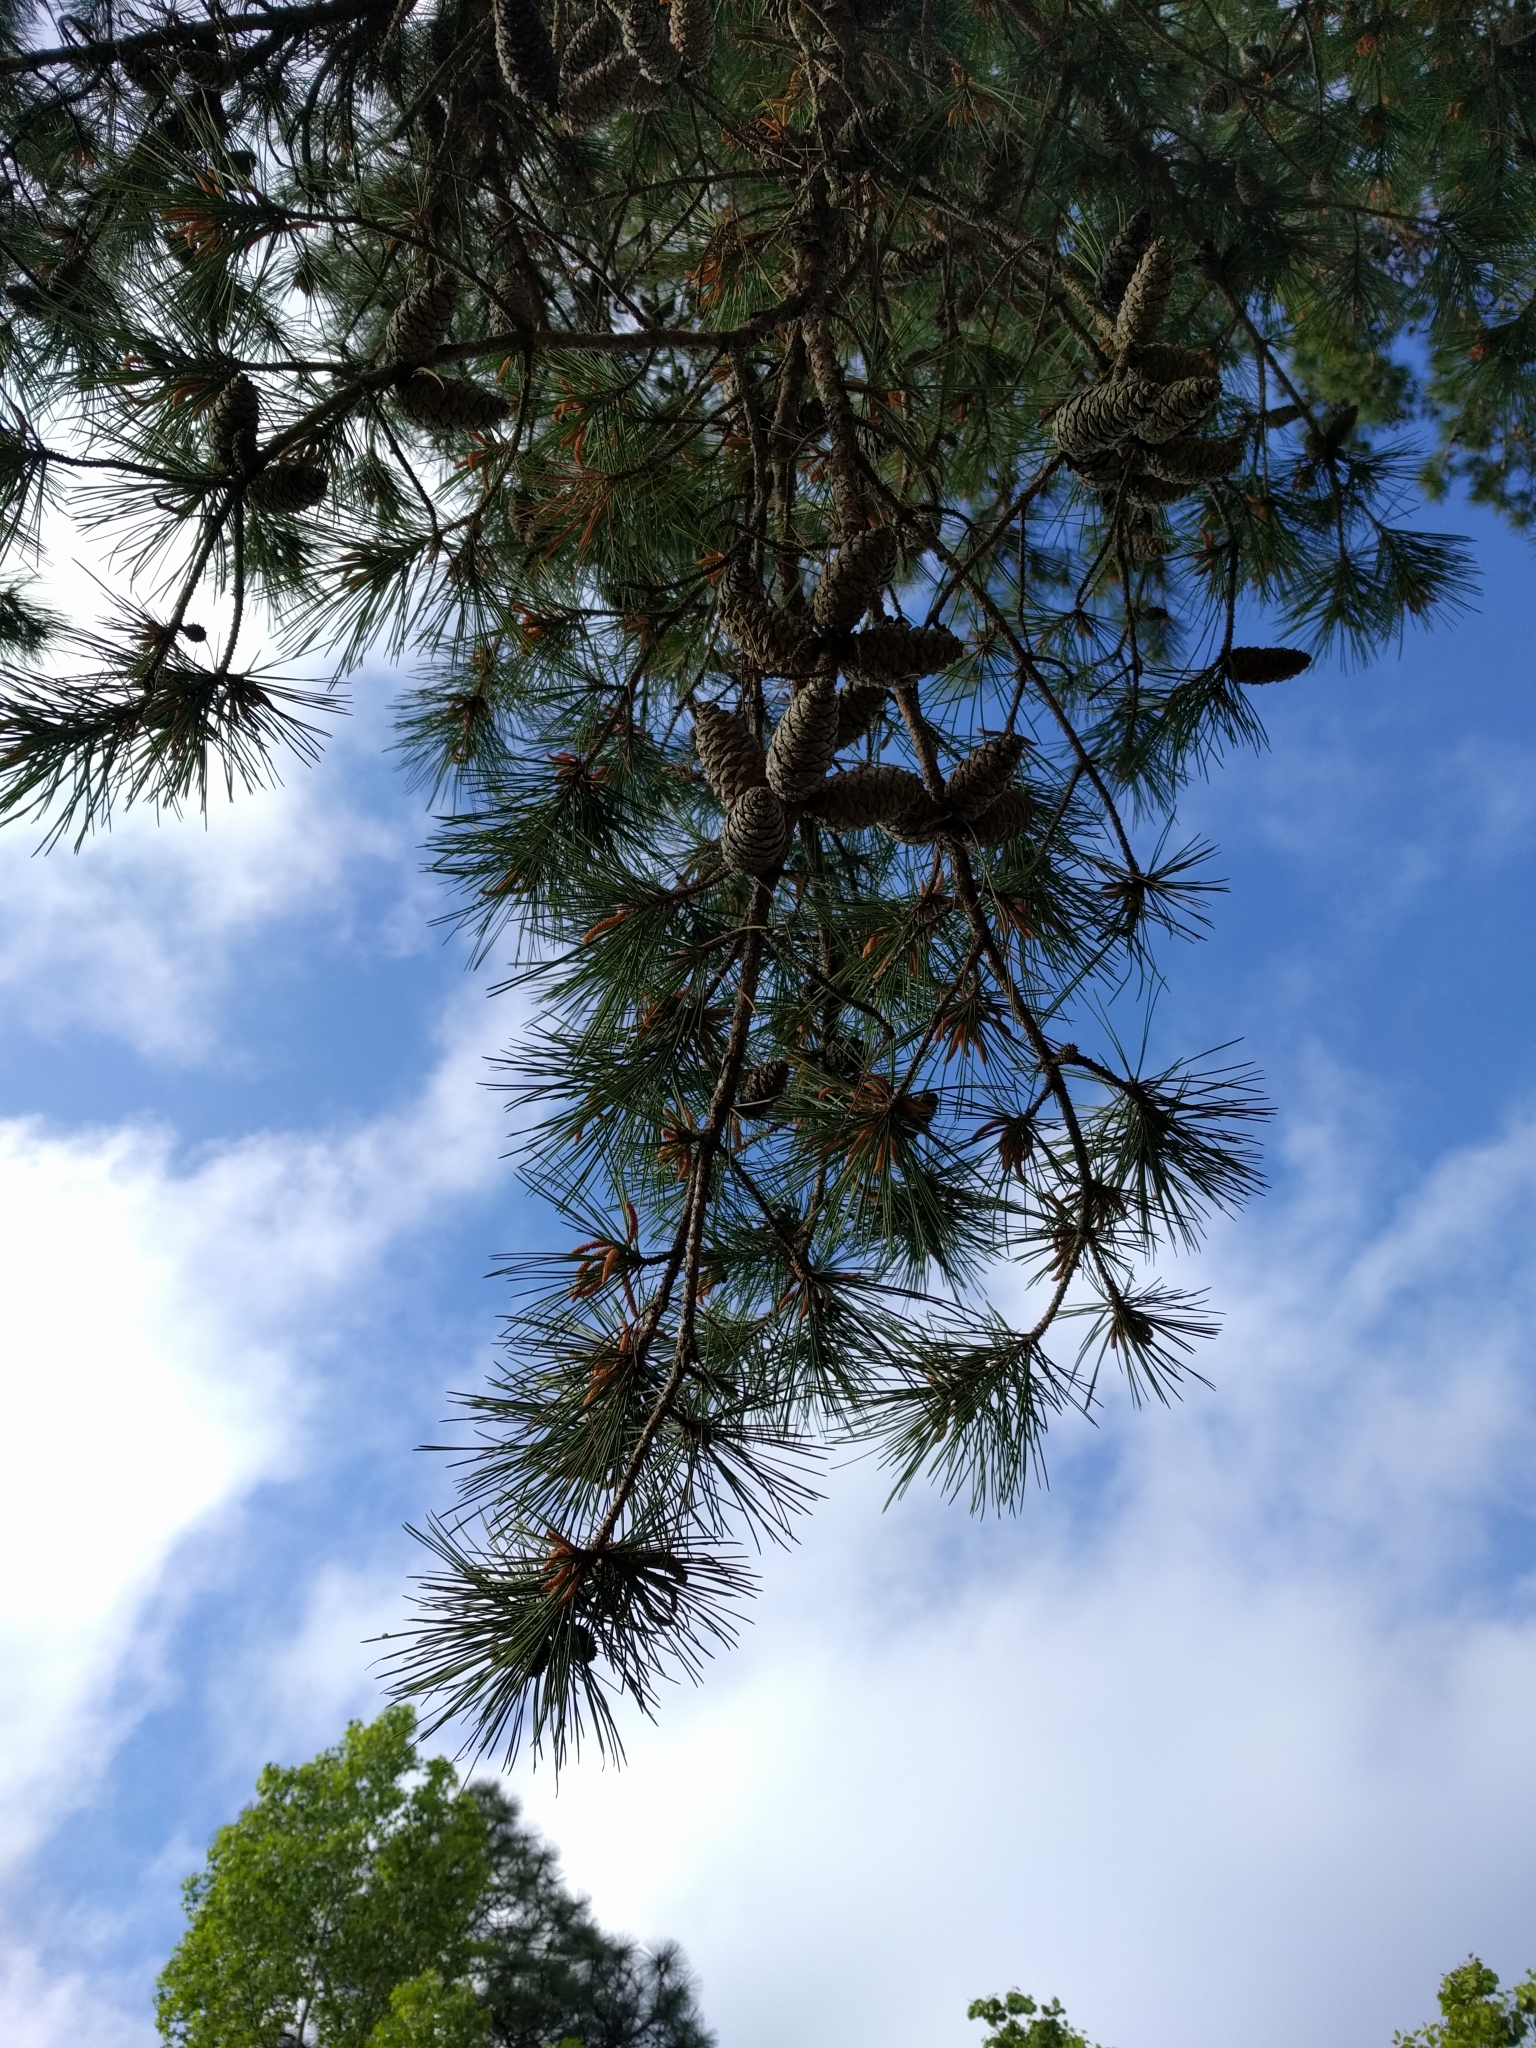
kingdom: Plantae
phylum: Tracheophyta
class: Pinopsida
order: Pinales
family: Pinaceae
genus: Pinus
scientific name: Pinus echinata
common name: Shortleaf pine
